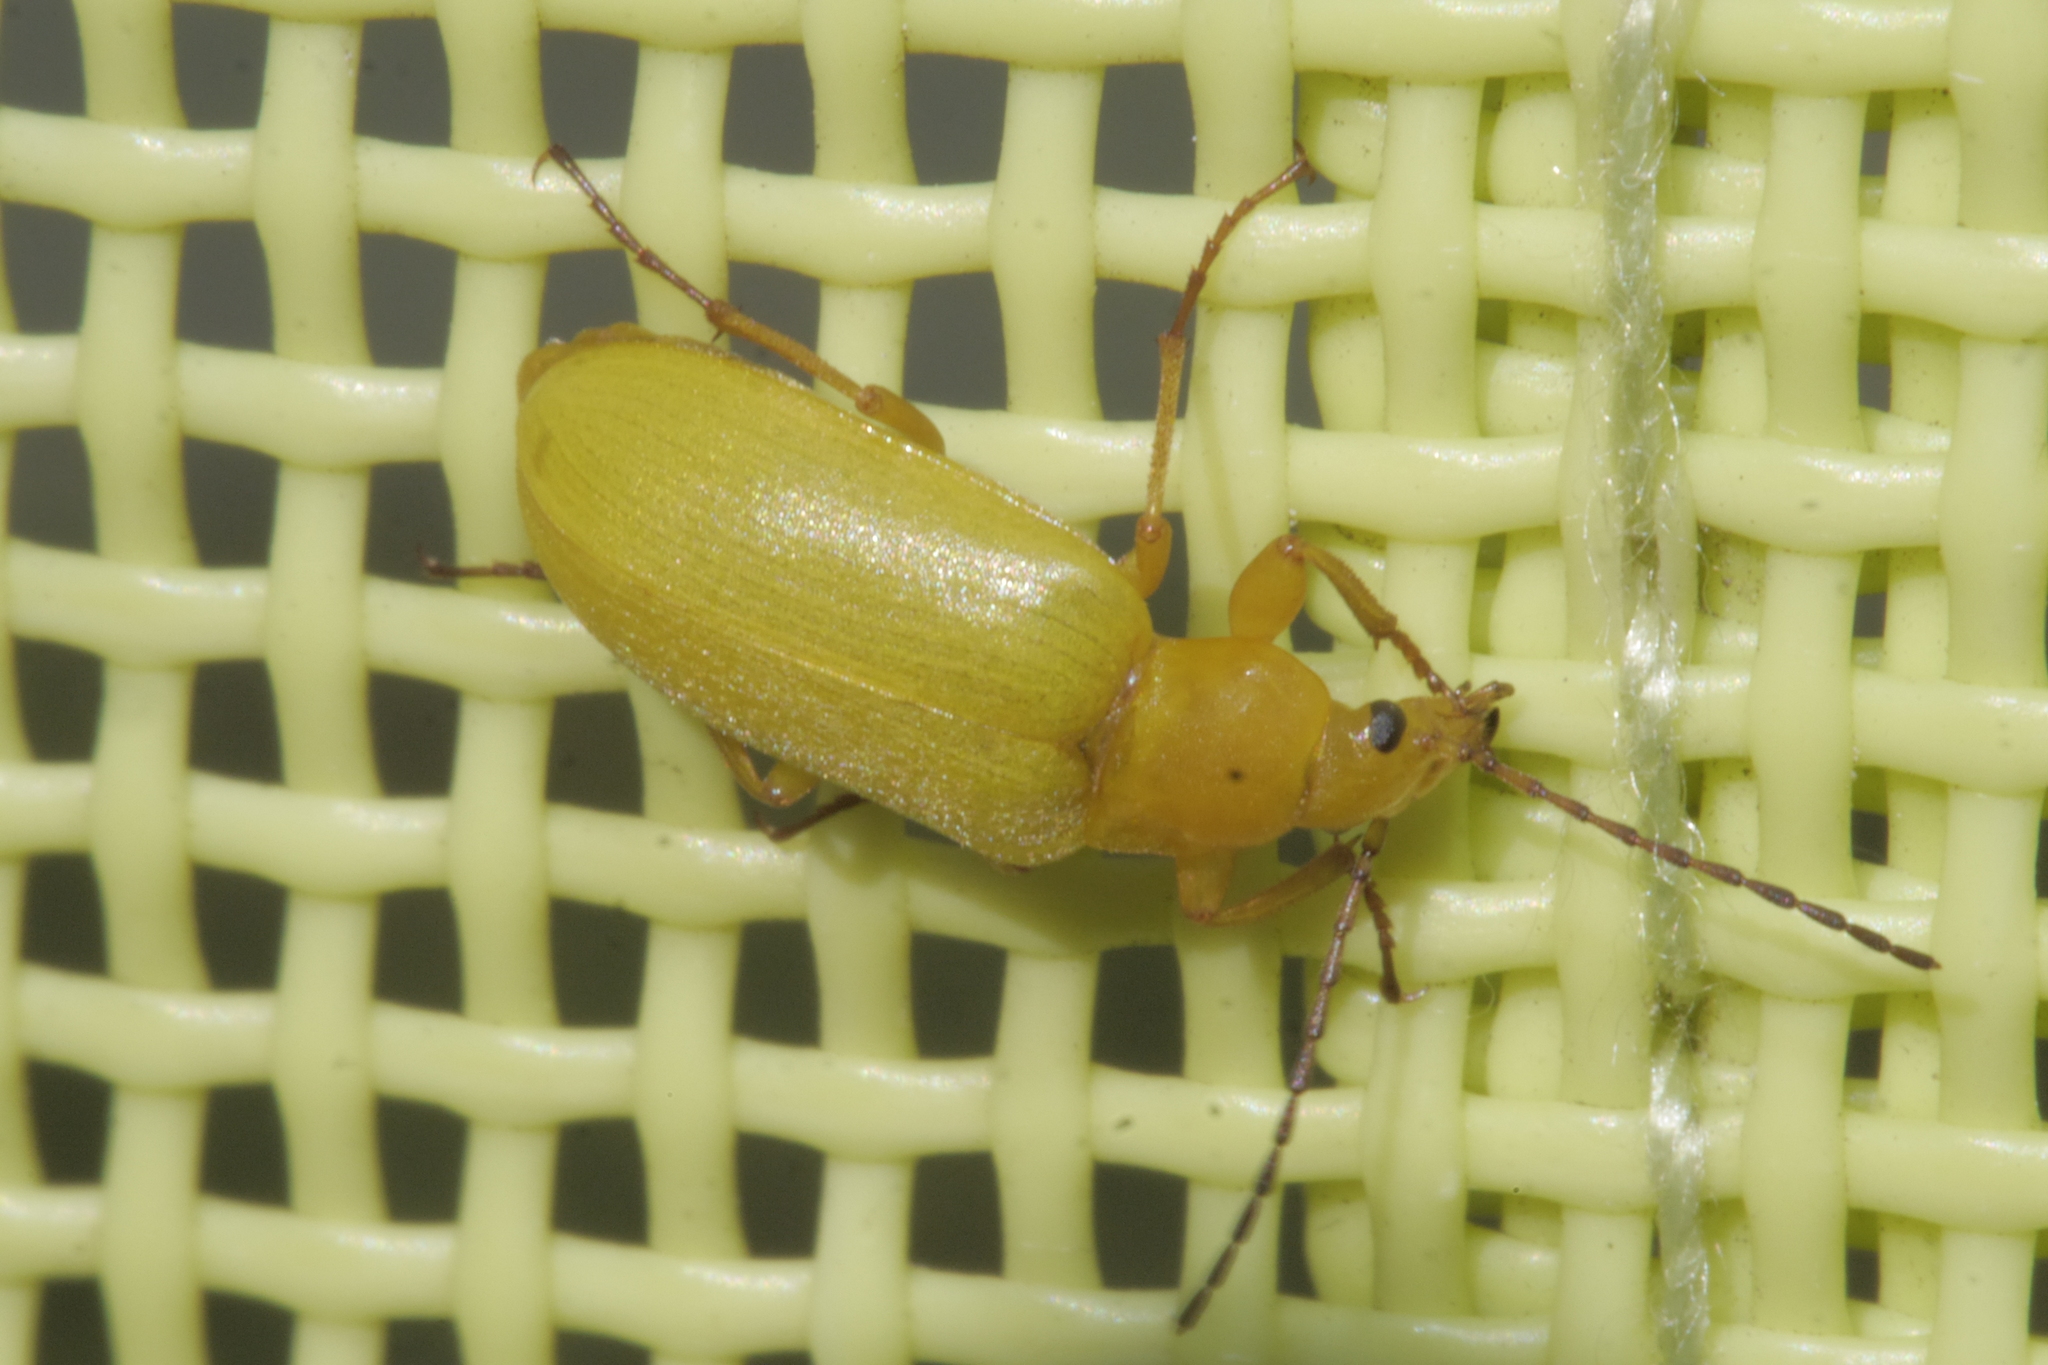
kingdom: Animalia
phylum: Arthropoda
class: Insecta
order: Coleoptera
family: Tenebrionidae
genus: Cteniopus
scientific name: Cteniopus sulphureus
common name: Sulphur beetle
